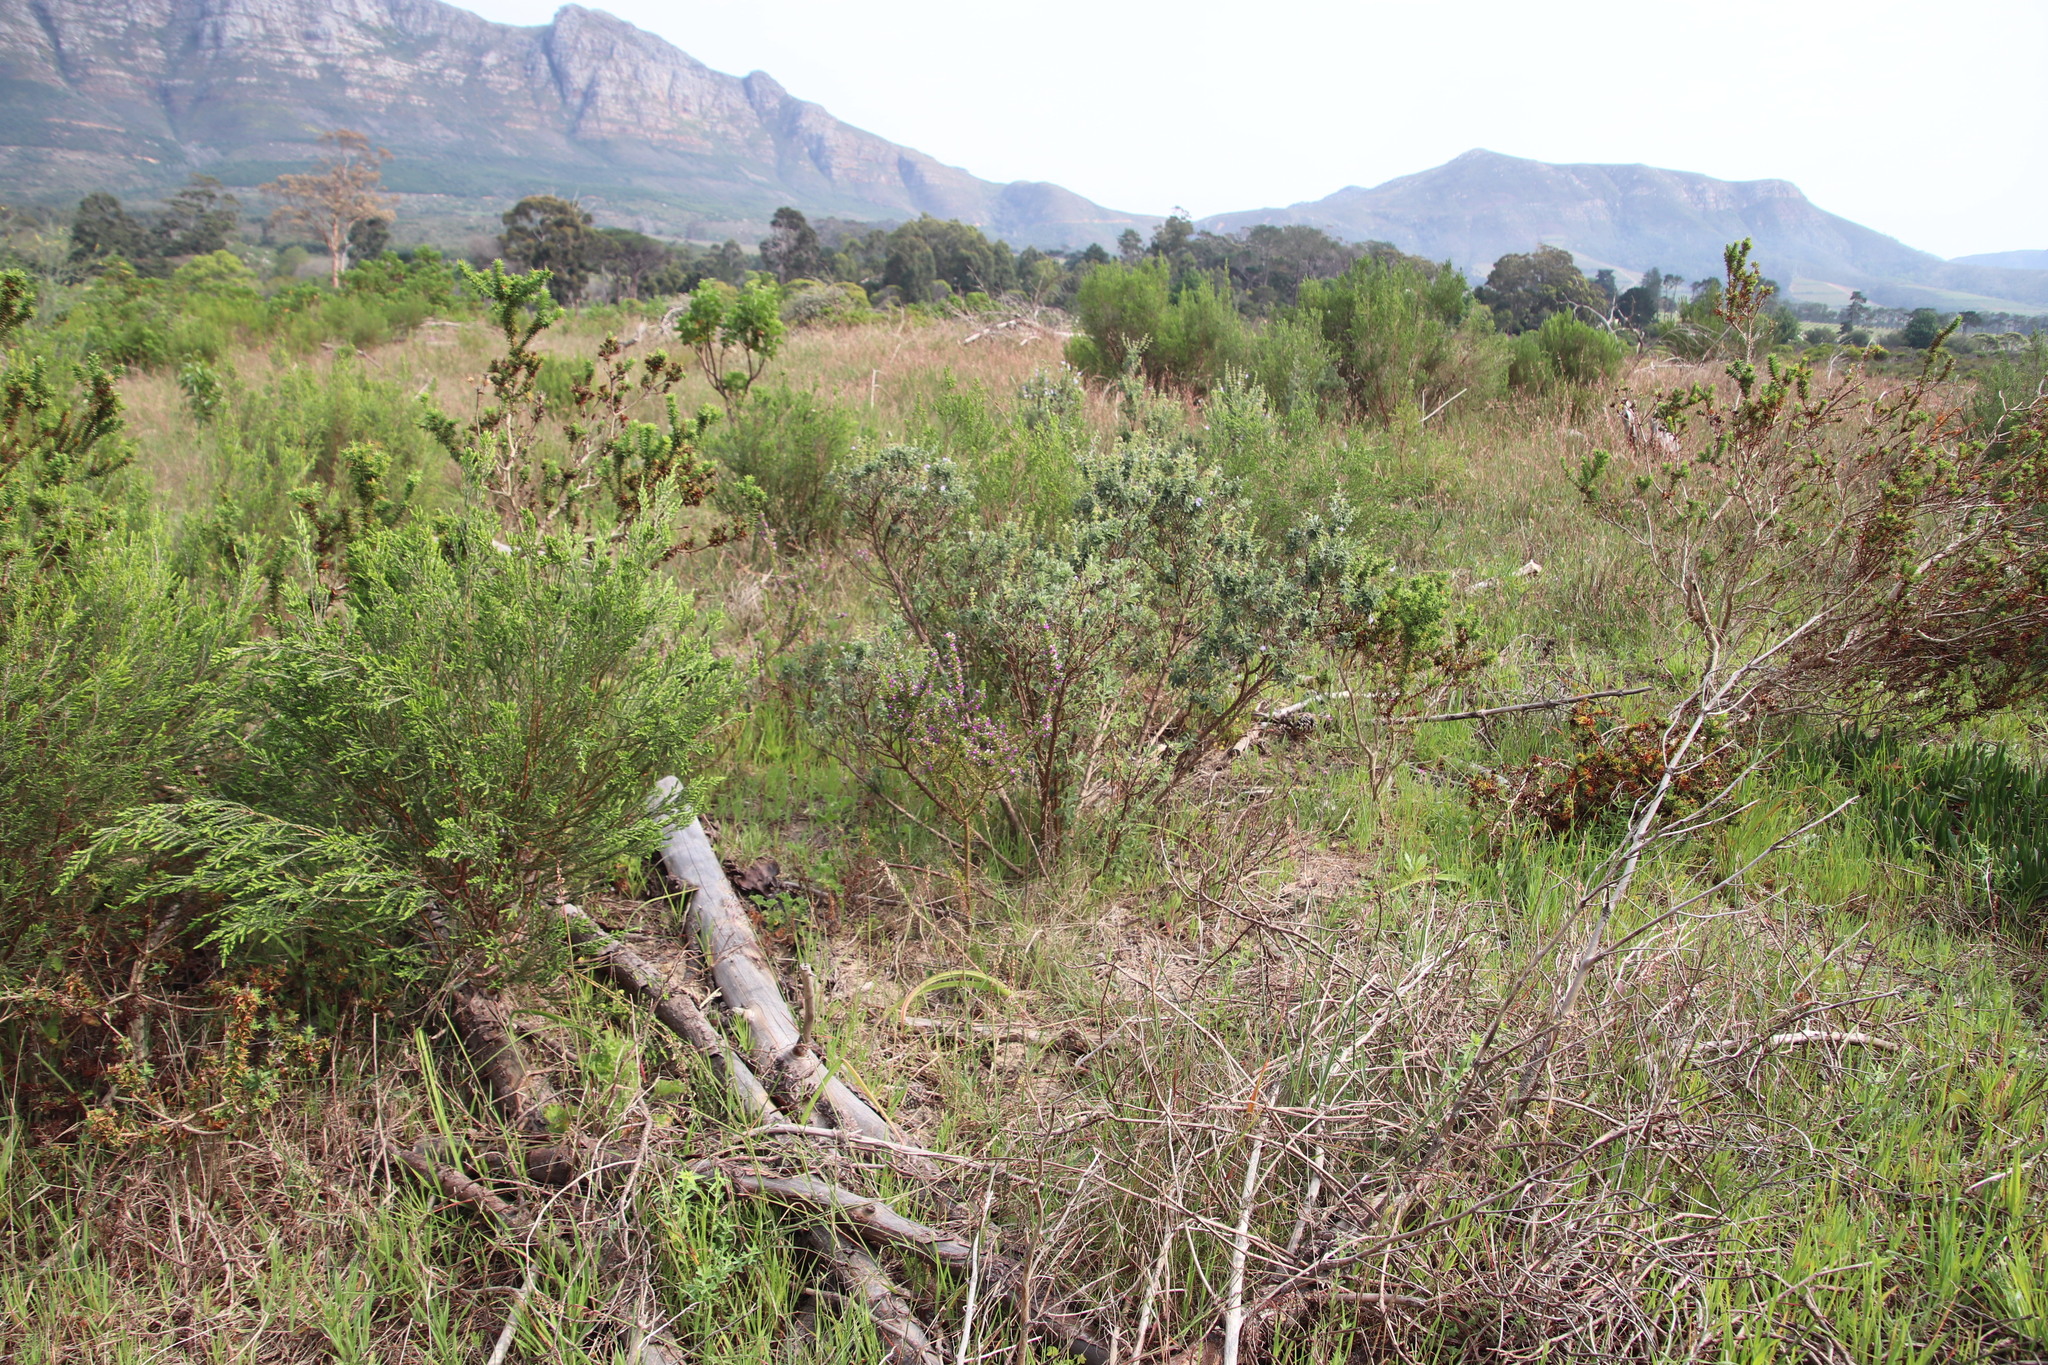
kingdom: Plantae
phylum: Tracheophyta
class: Magnoliopsida
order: Lamiales
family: Lamiaceae
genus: Salvia
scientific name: Salvia africana
